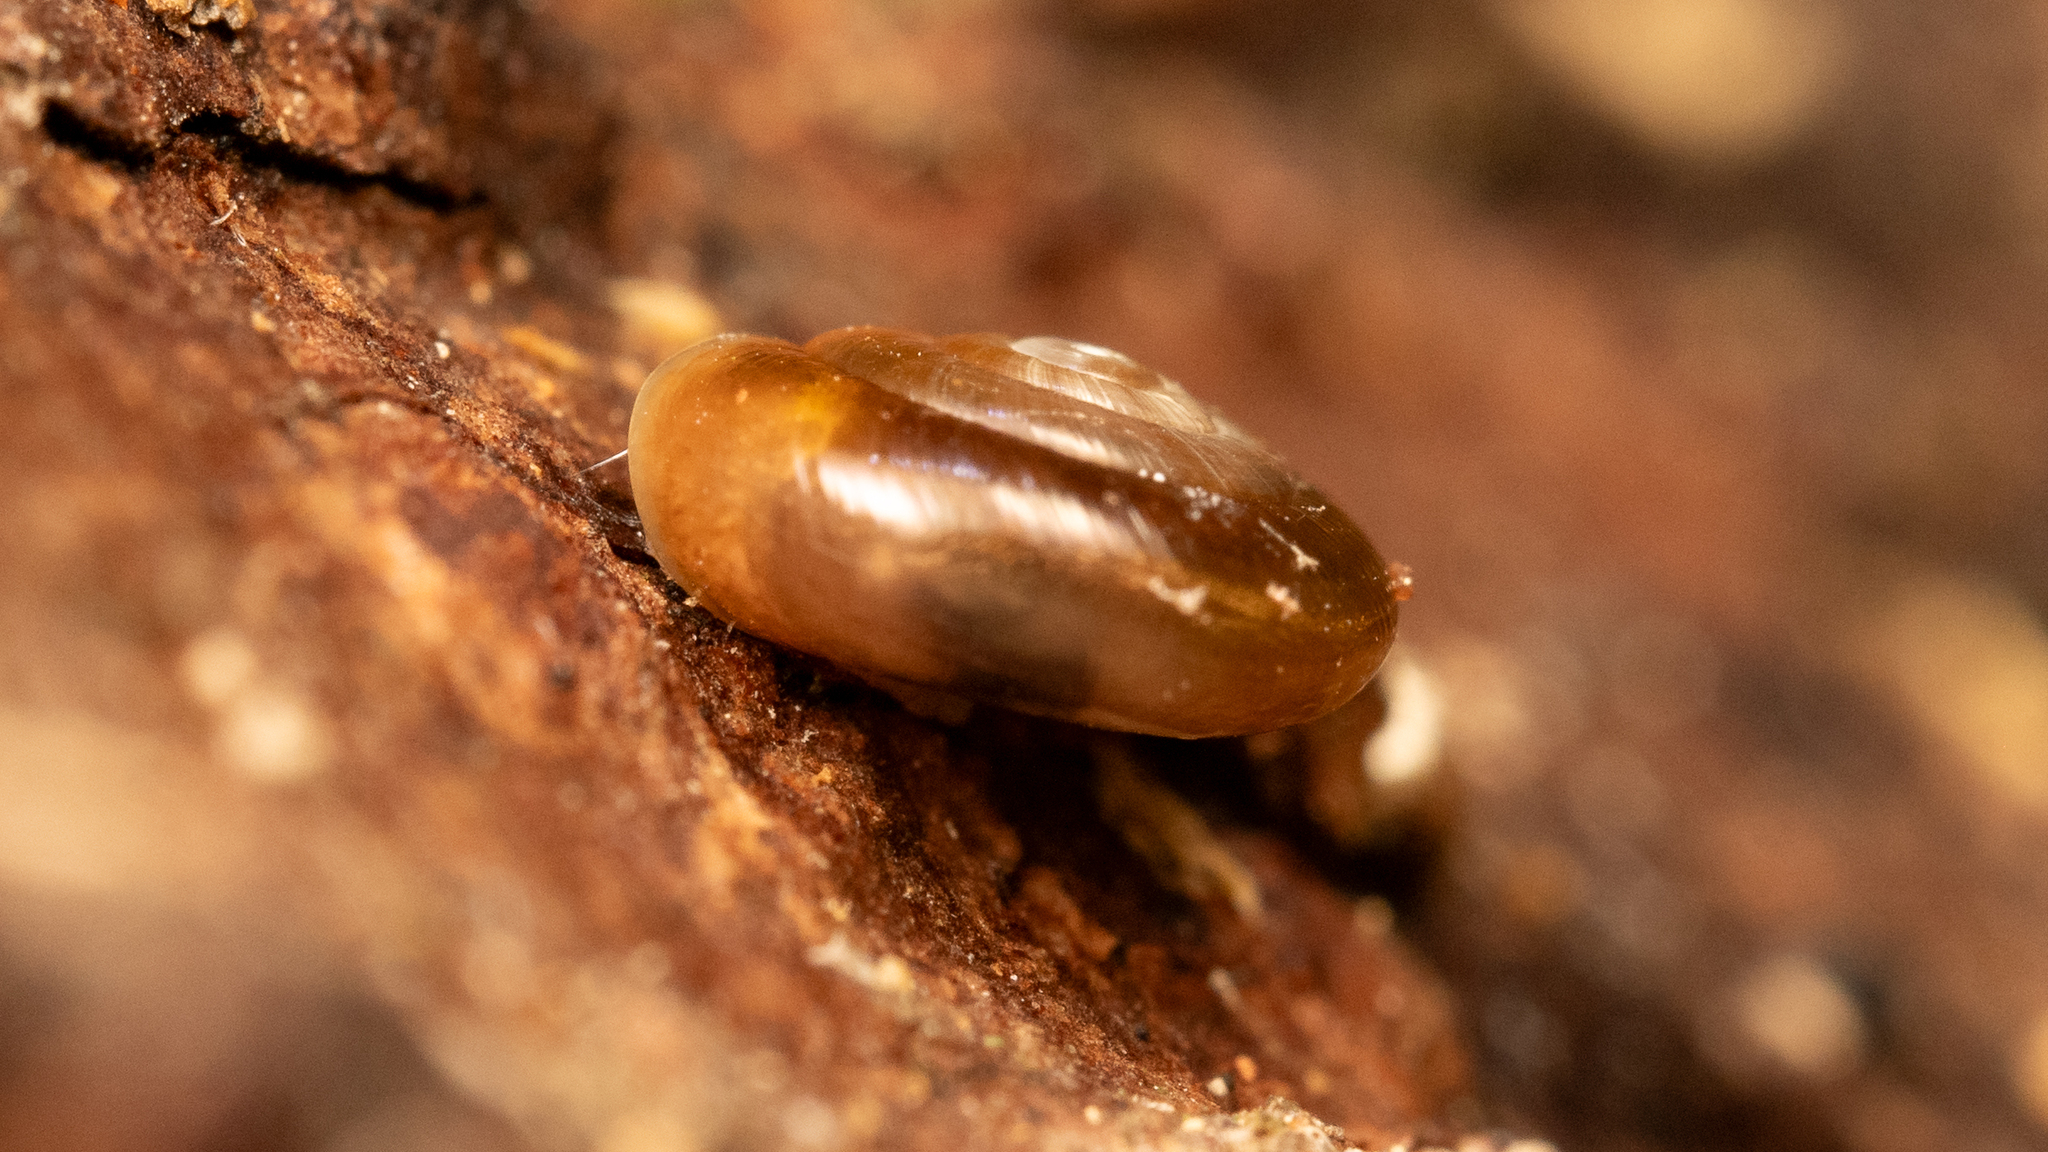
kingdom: Animalia
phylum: Mollusca
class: Gastropoda
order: Stylommatophora
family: Gastrodontidae
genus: Zonitoides
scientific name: Zonitoides arboreus
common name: Quick gloss
